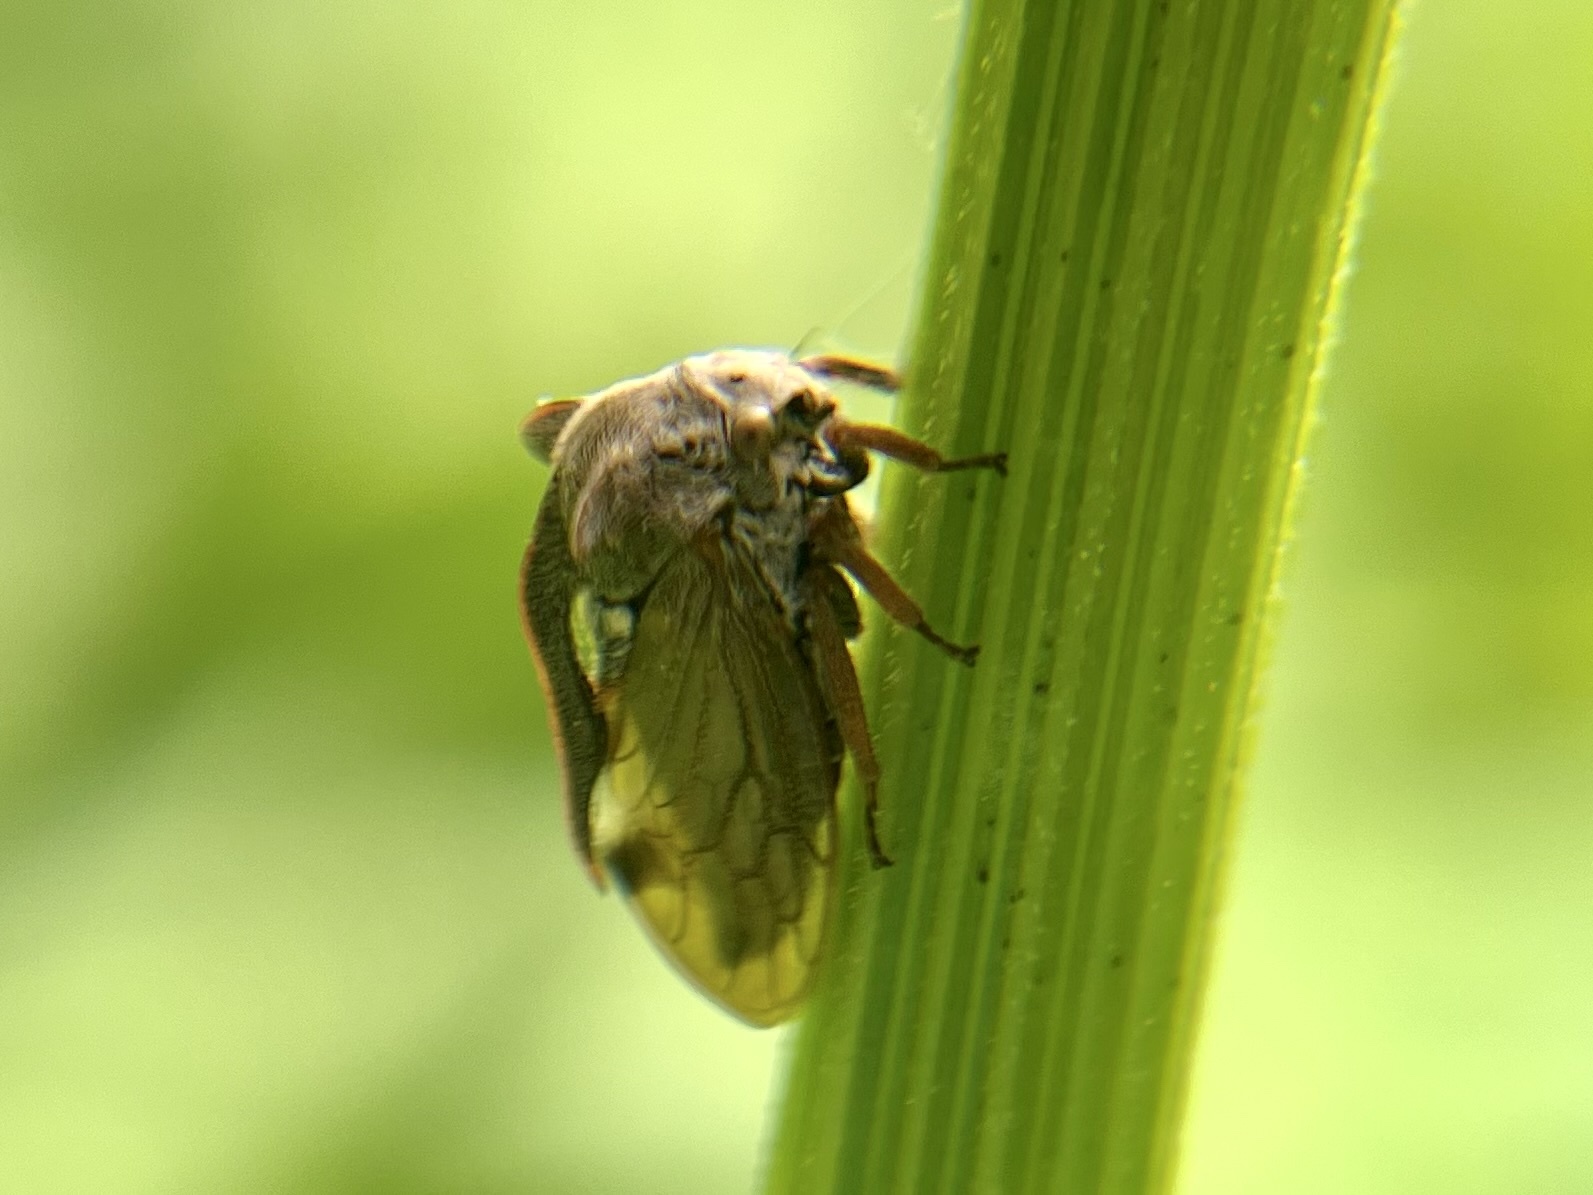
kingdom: Animalia
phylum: Arthropoda
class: Insecta
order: Hemiptera
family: Membracidae
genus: Centrotus
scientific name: Centrotus cornuta
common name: Treehopper
